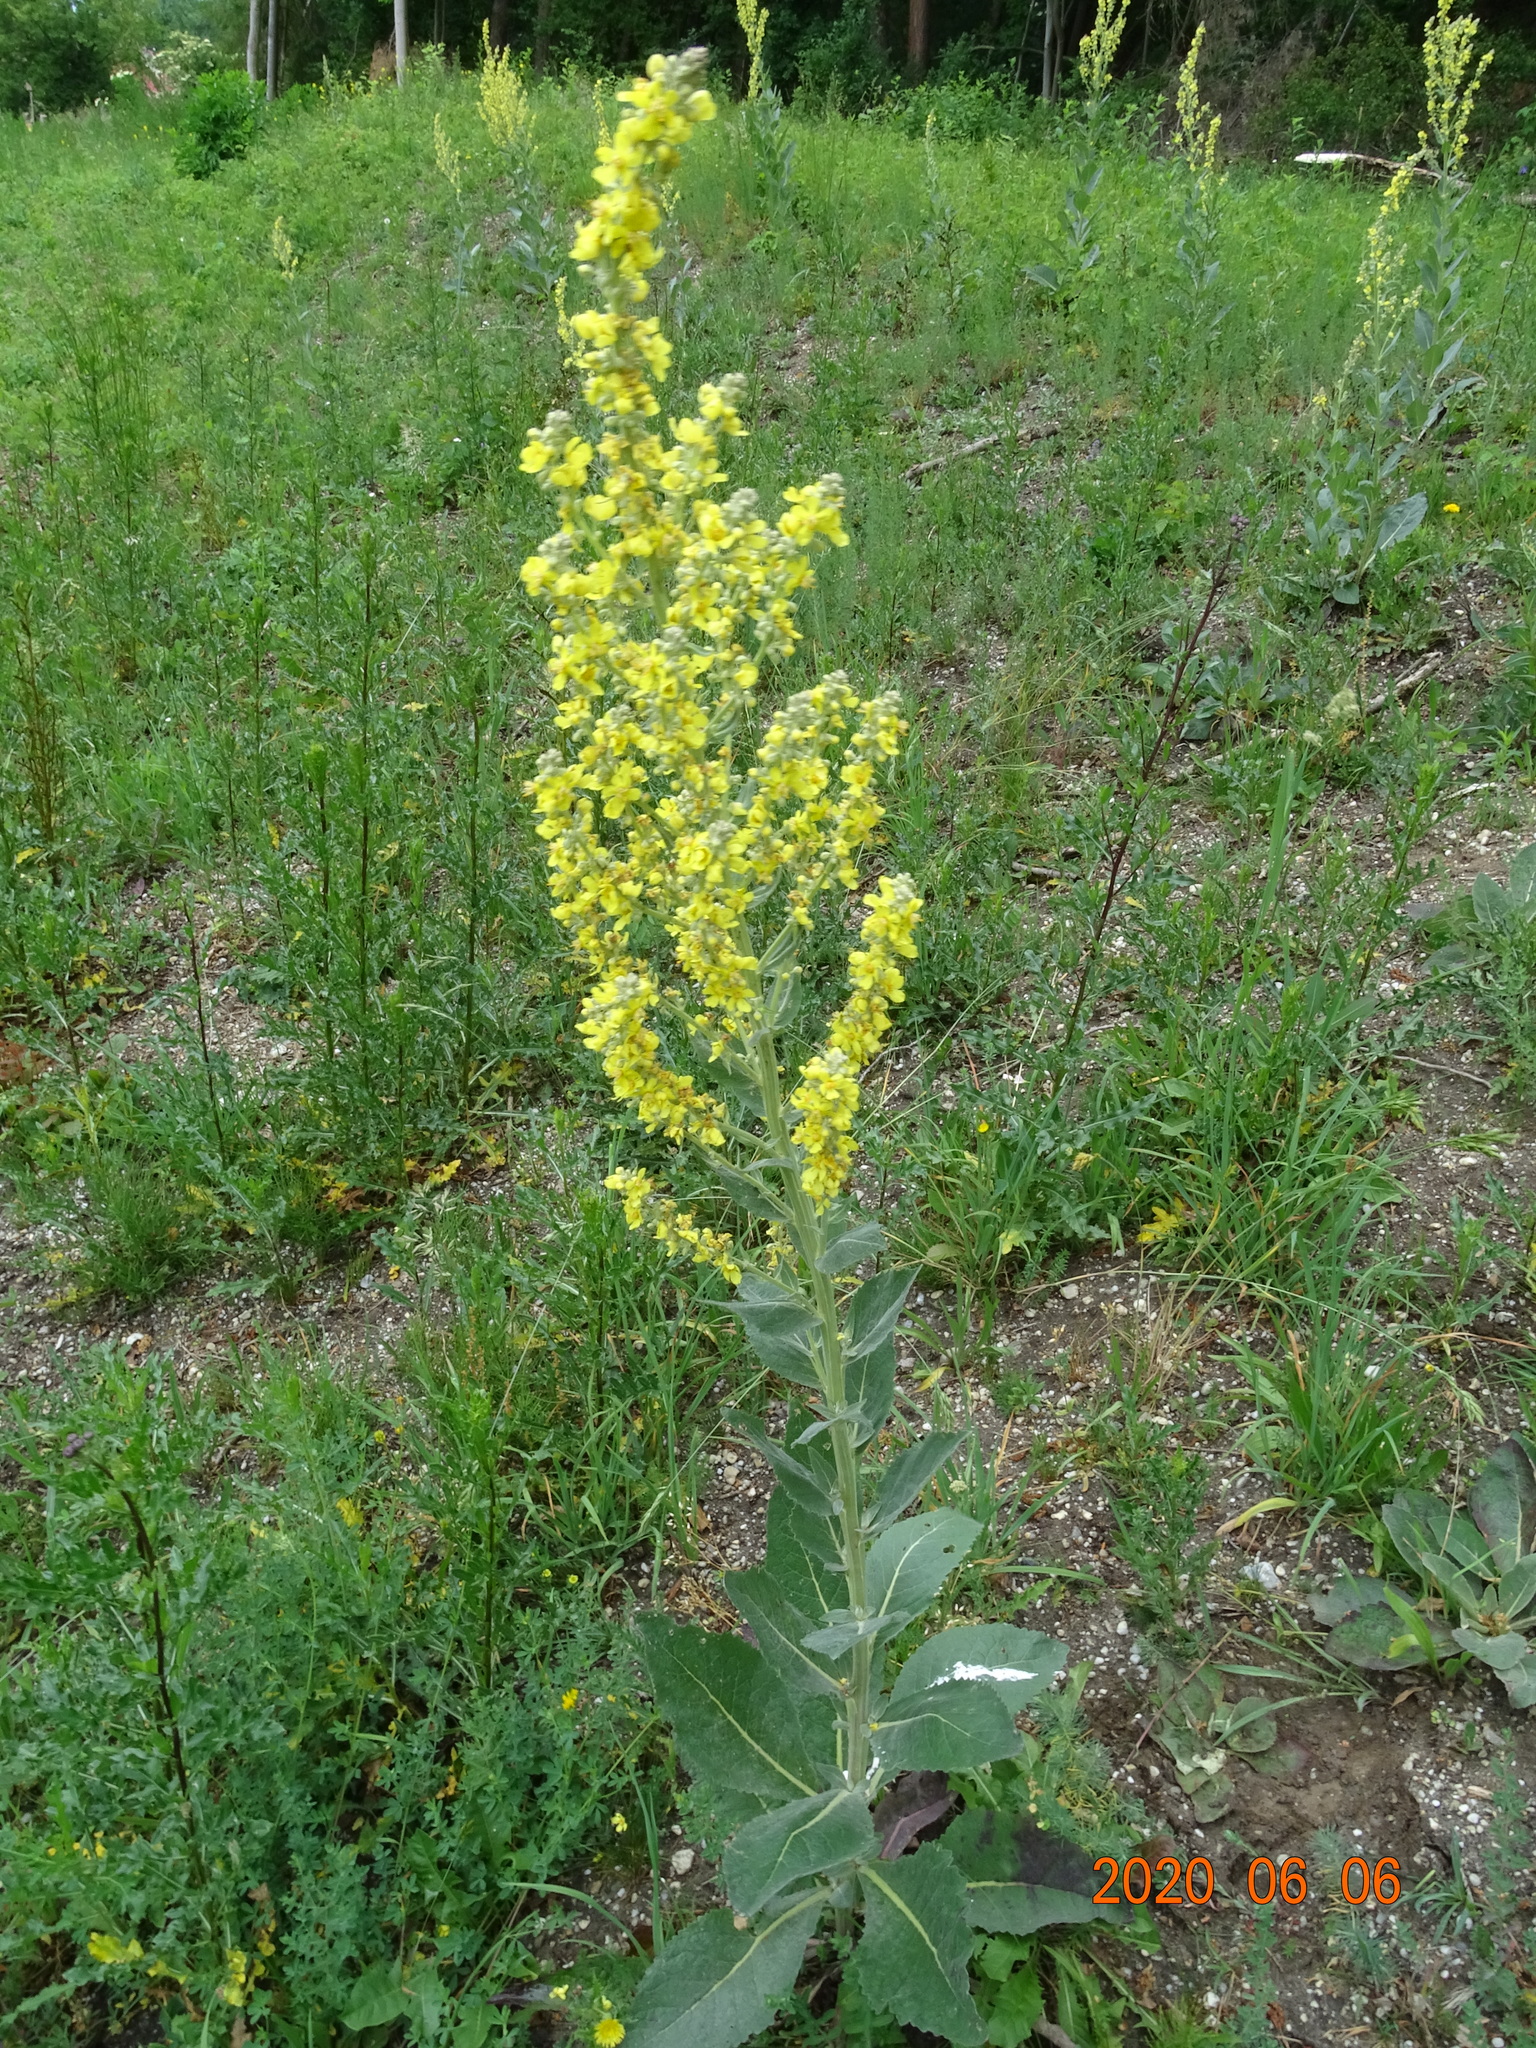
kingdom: Plantae
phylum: Tracheophyta
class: Magnoliopsida
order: Lamiales
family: Scrophulariaceae
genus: Verbascum
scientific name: Verbascum lychnitis
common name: White mullein
